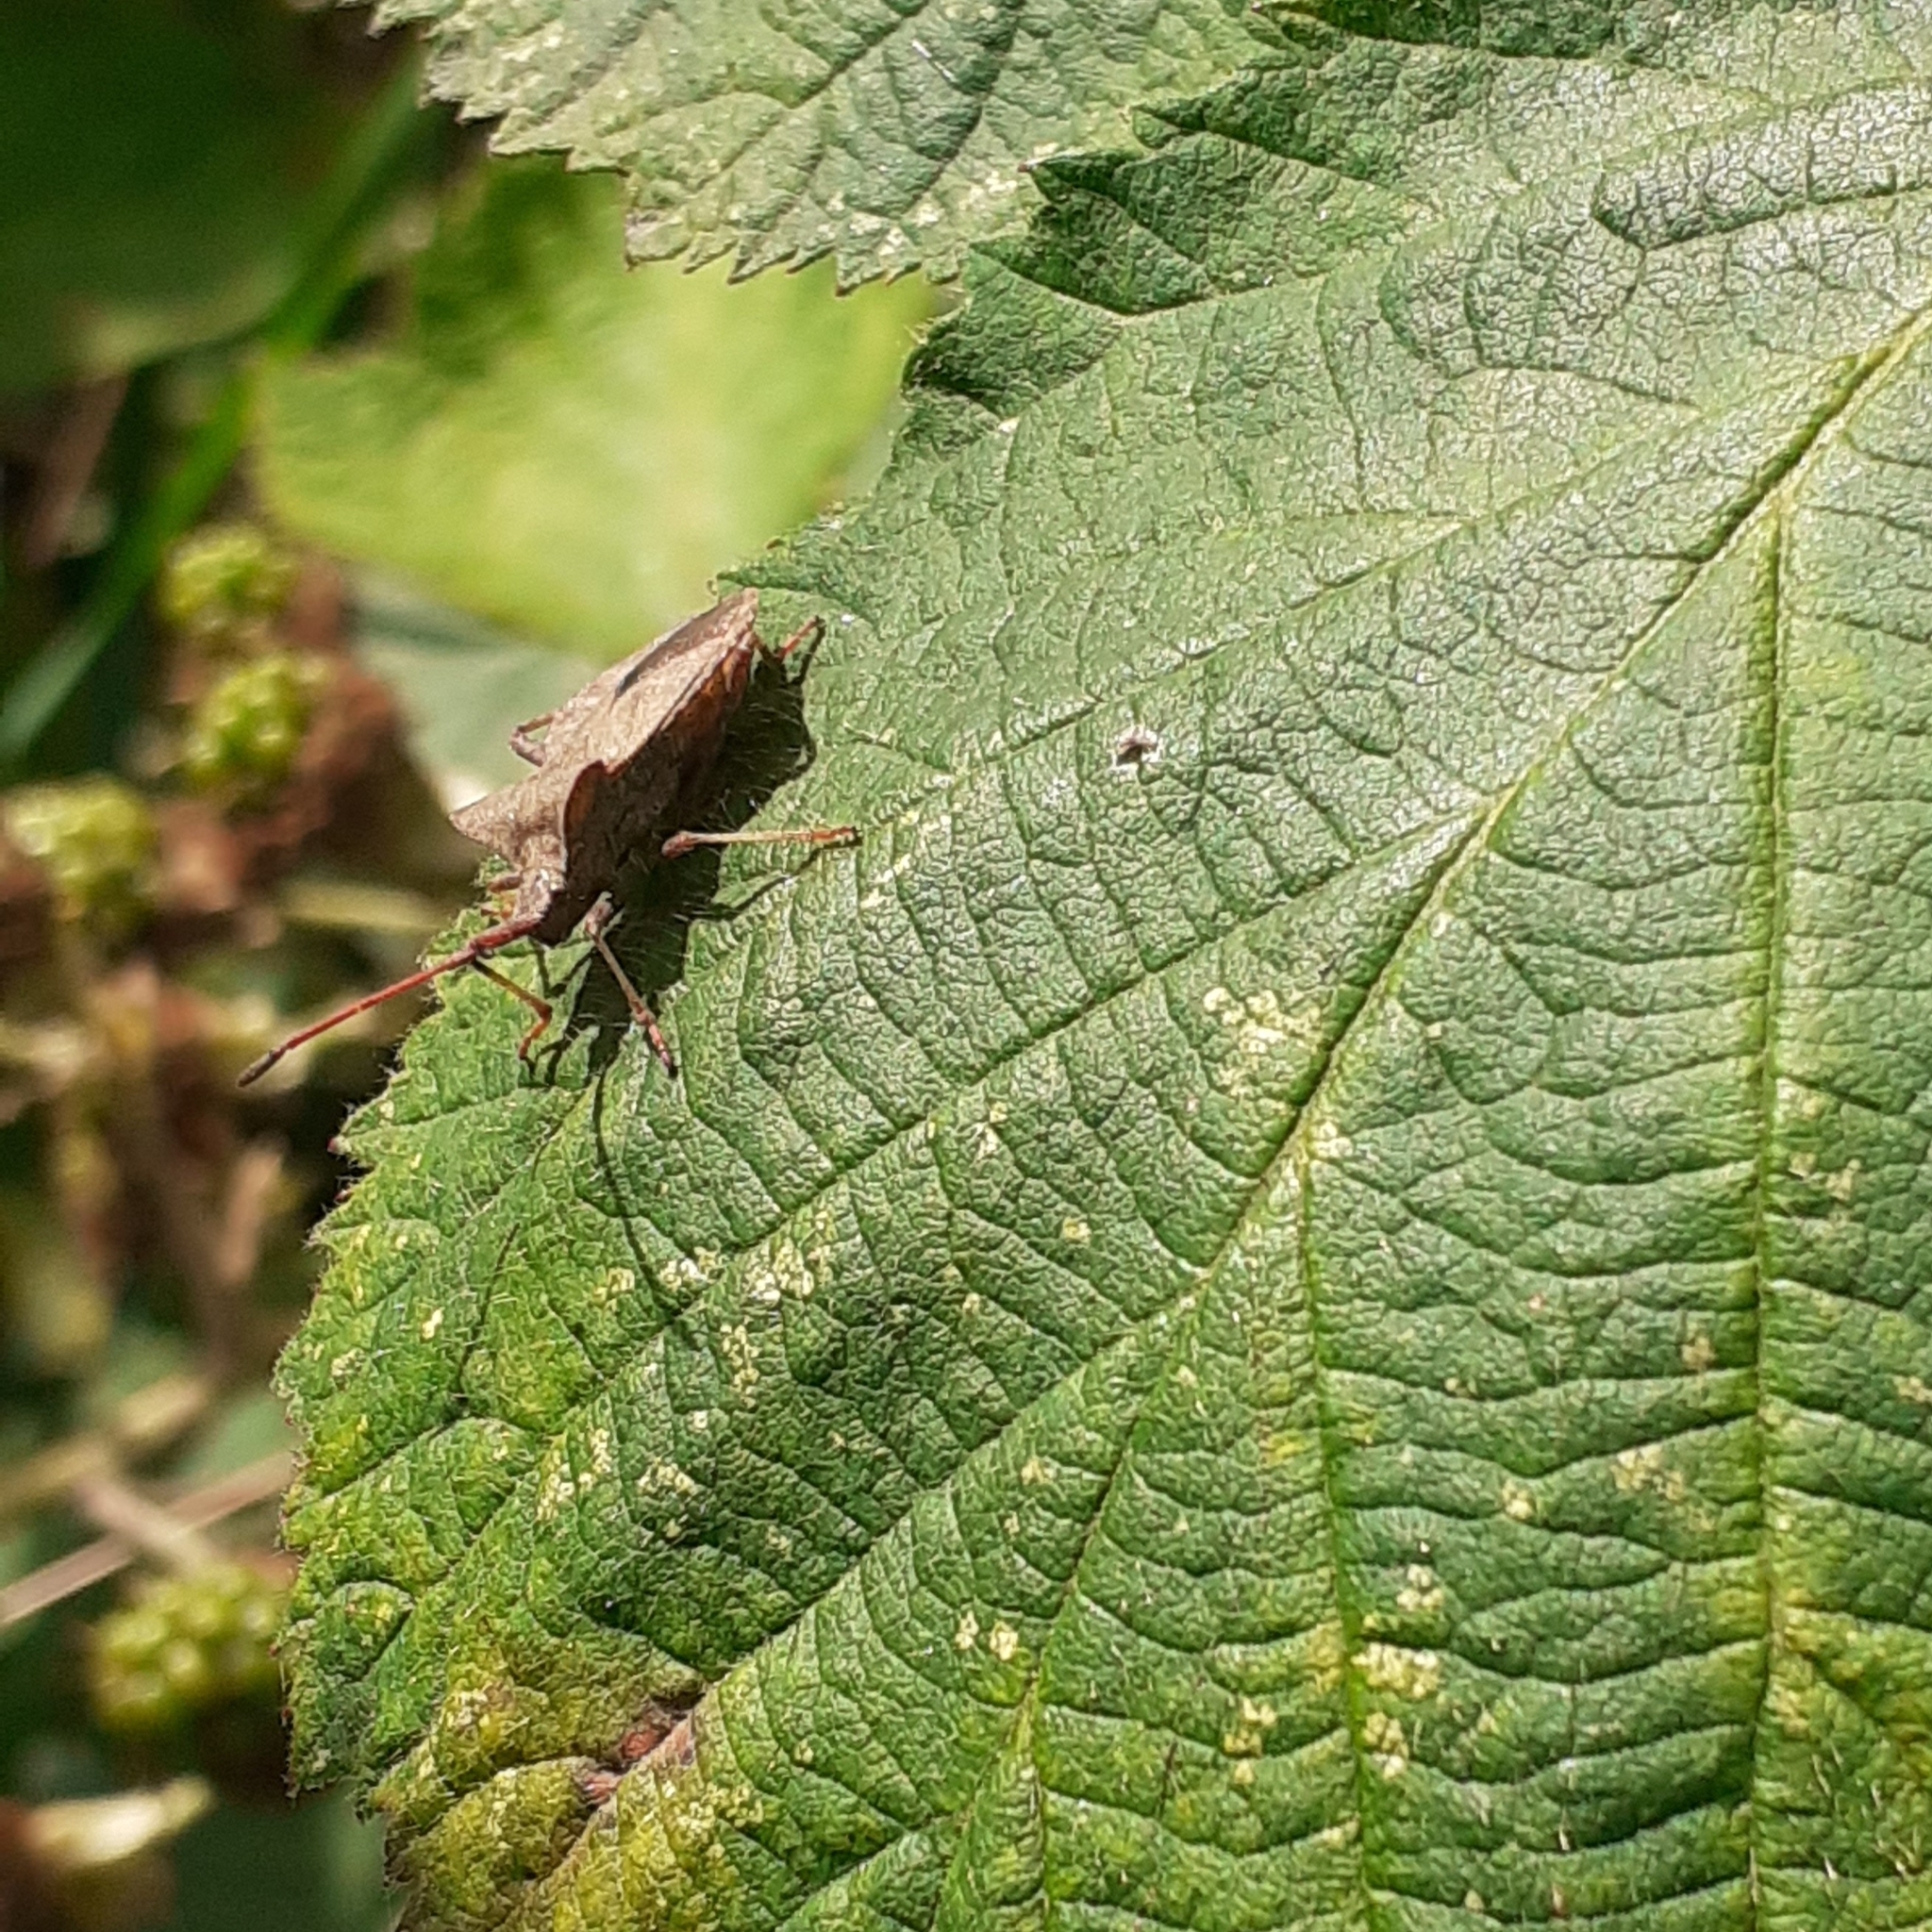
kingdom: Animalia
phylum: Arthropoda
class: Insecta
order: Hemiptera
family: Coreidae
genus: Coreus
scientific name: Coreus marginatus
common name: Dock bug
